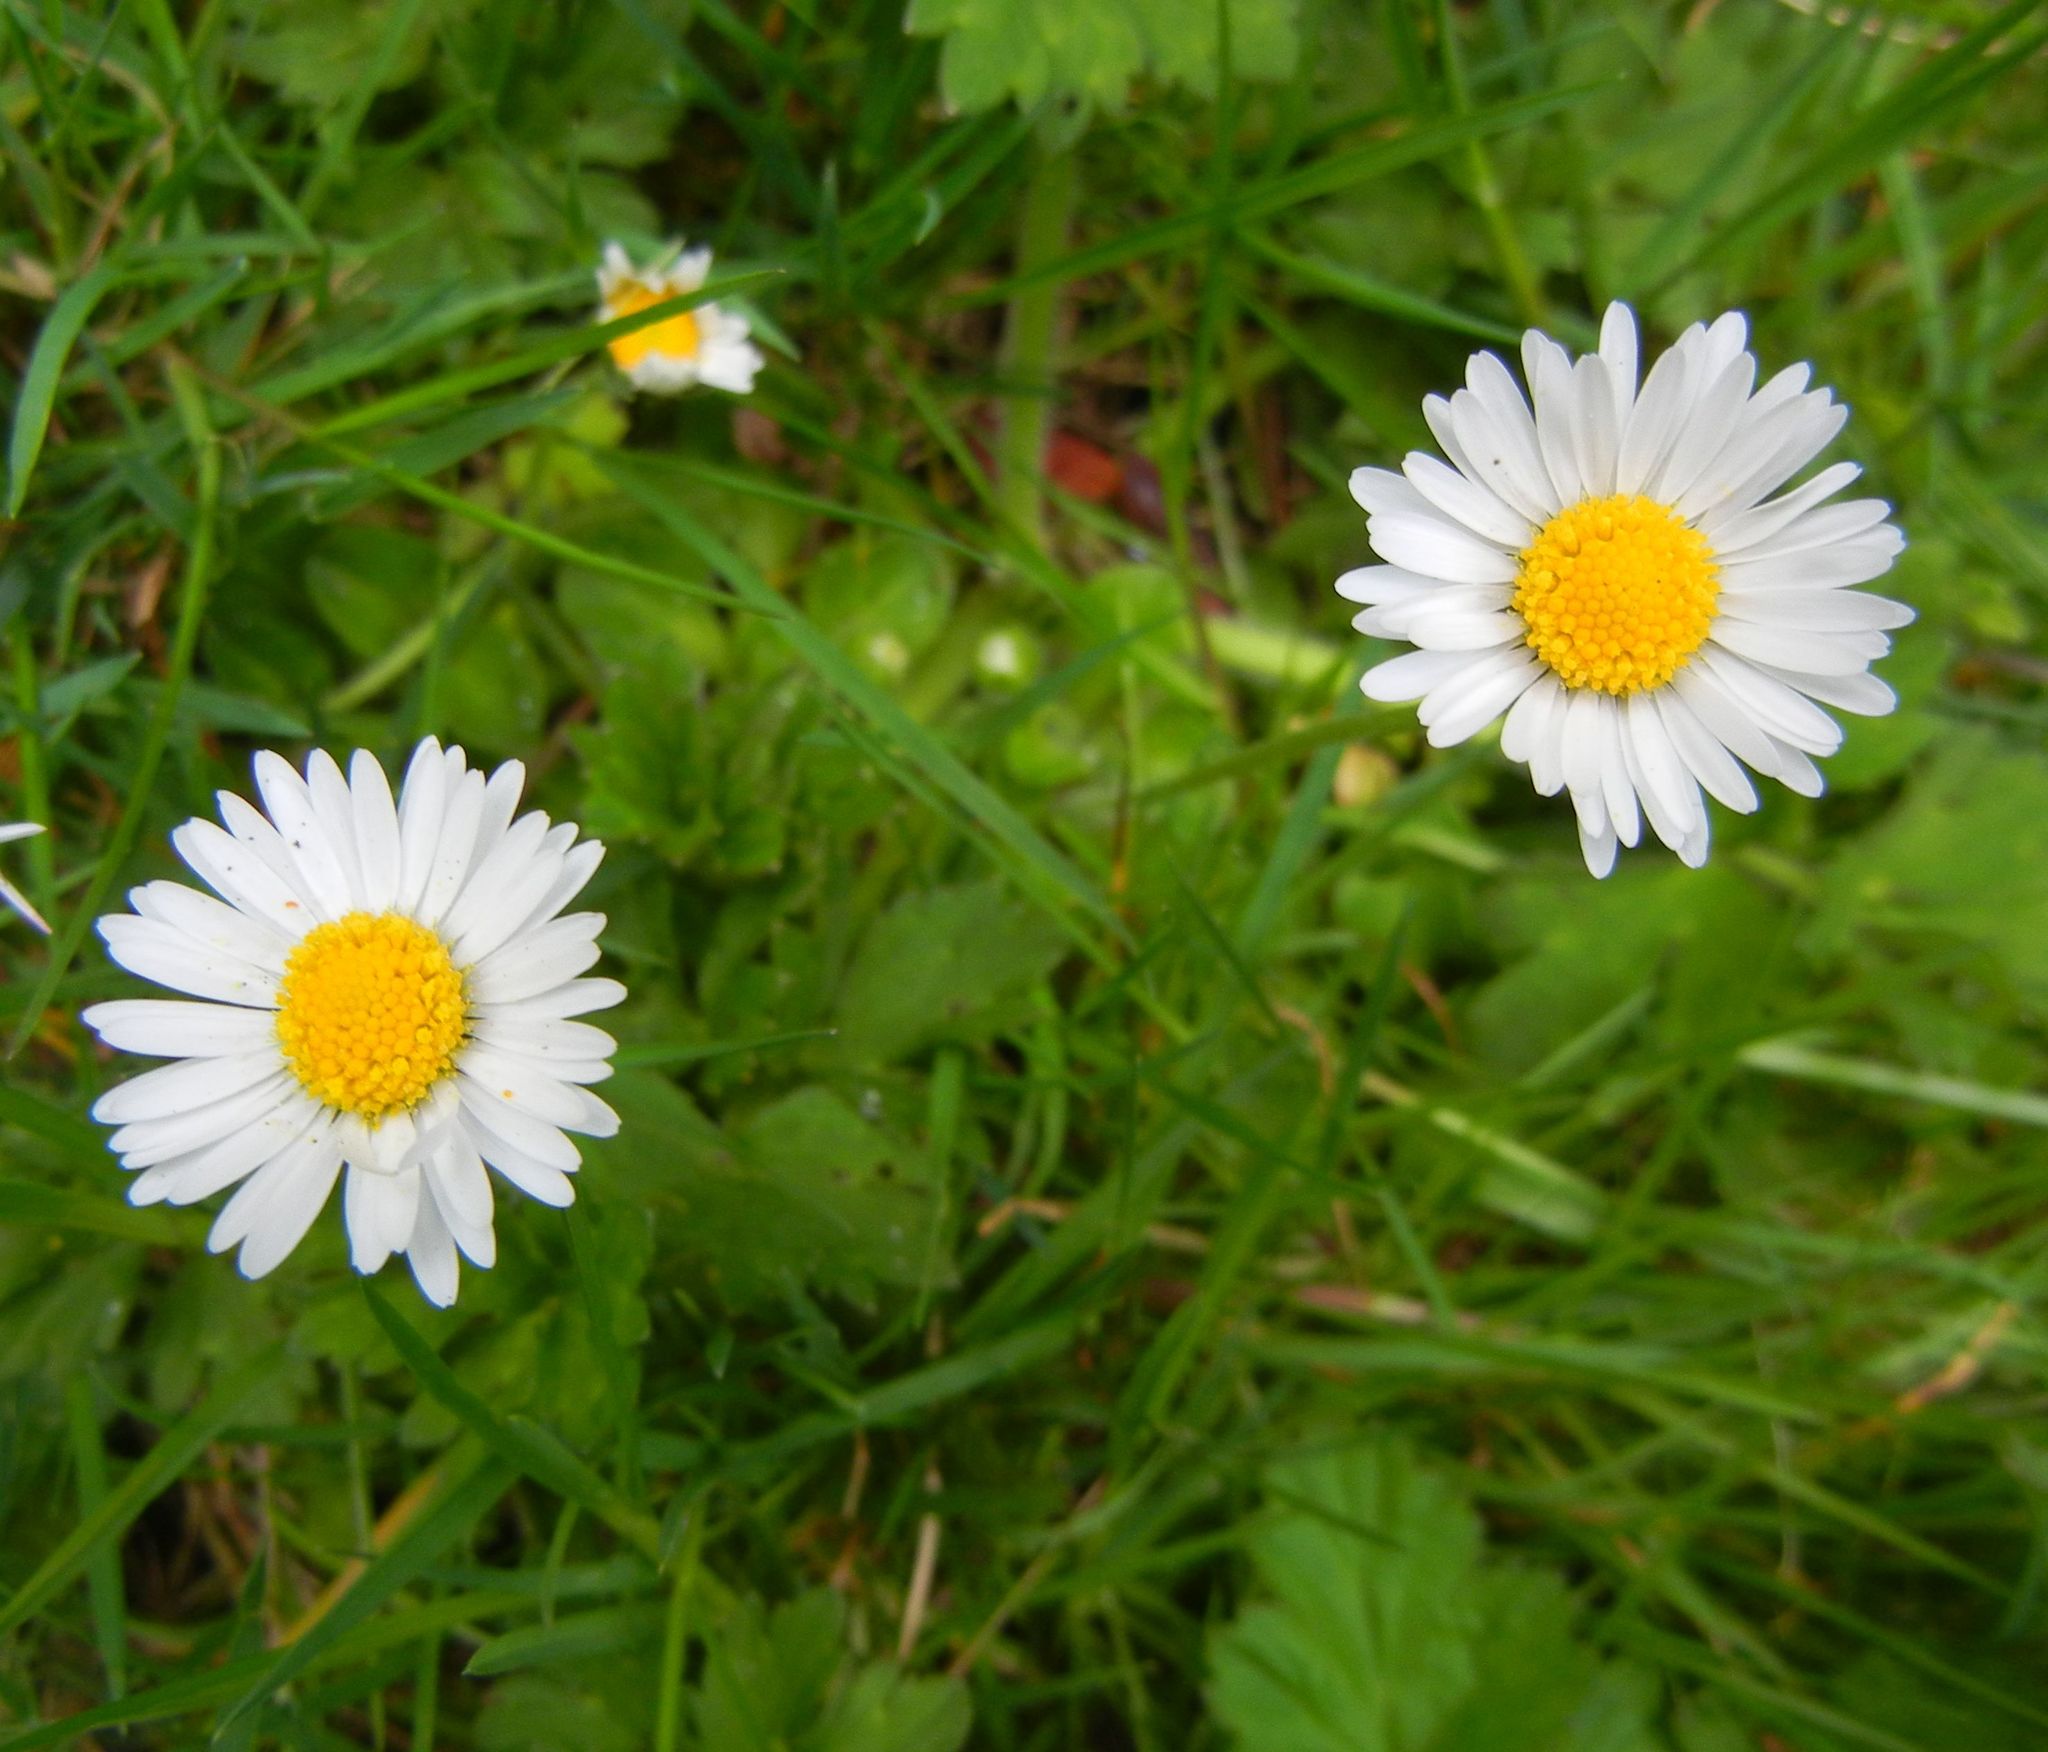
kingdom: Plantae
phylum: Tracheophyta
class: Magnoliopsida
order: Asterales
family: Asteraceae
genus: Bellis
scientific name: Bellis perennis
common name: Lawndaisy
